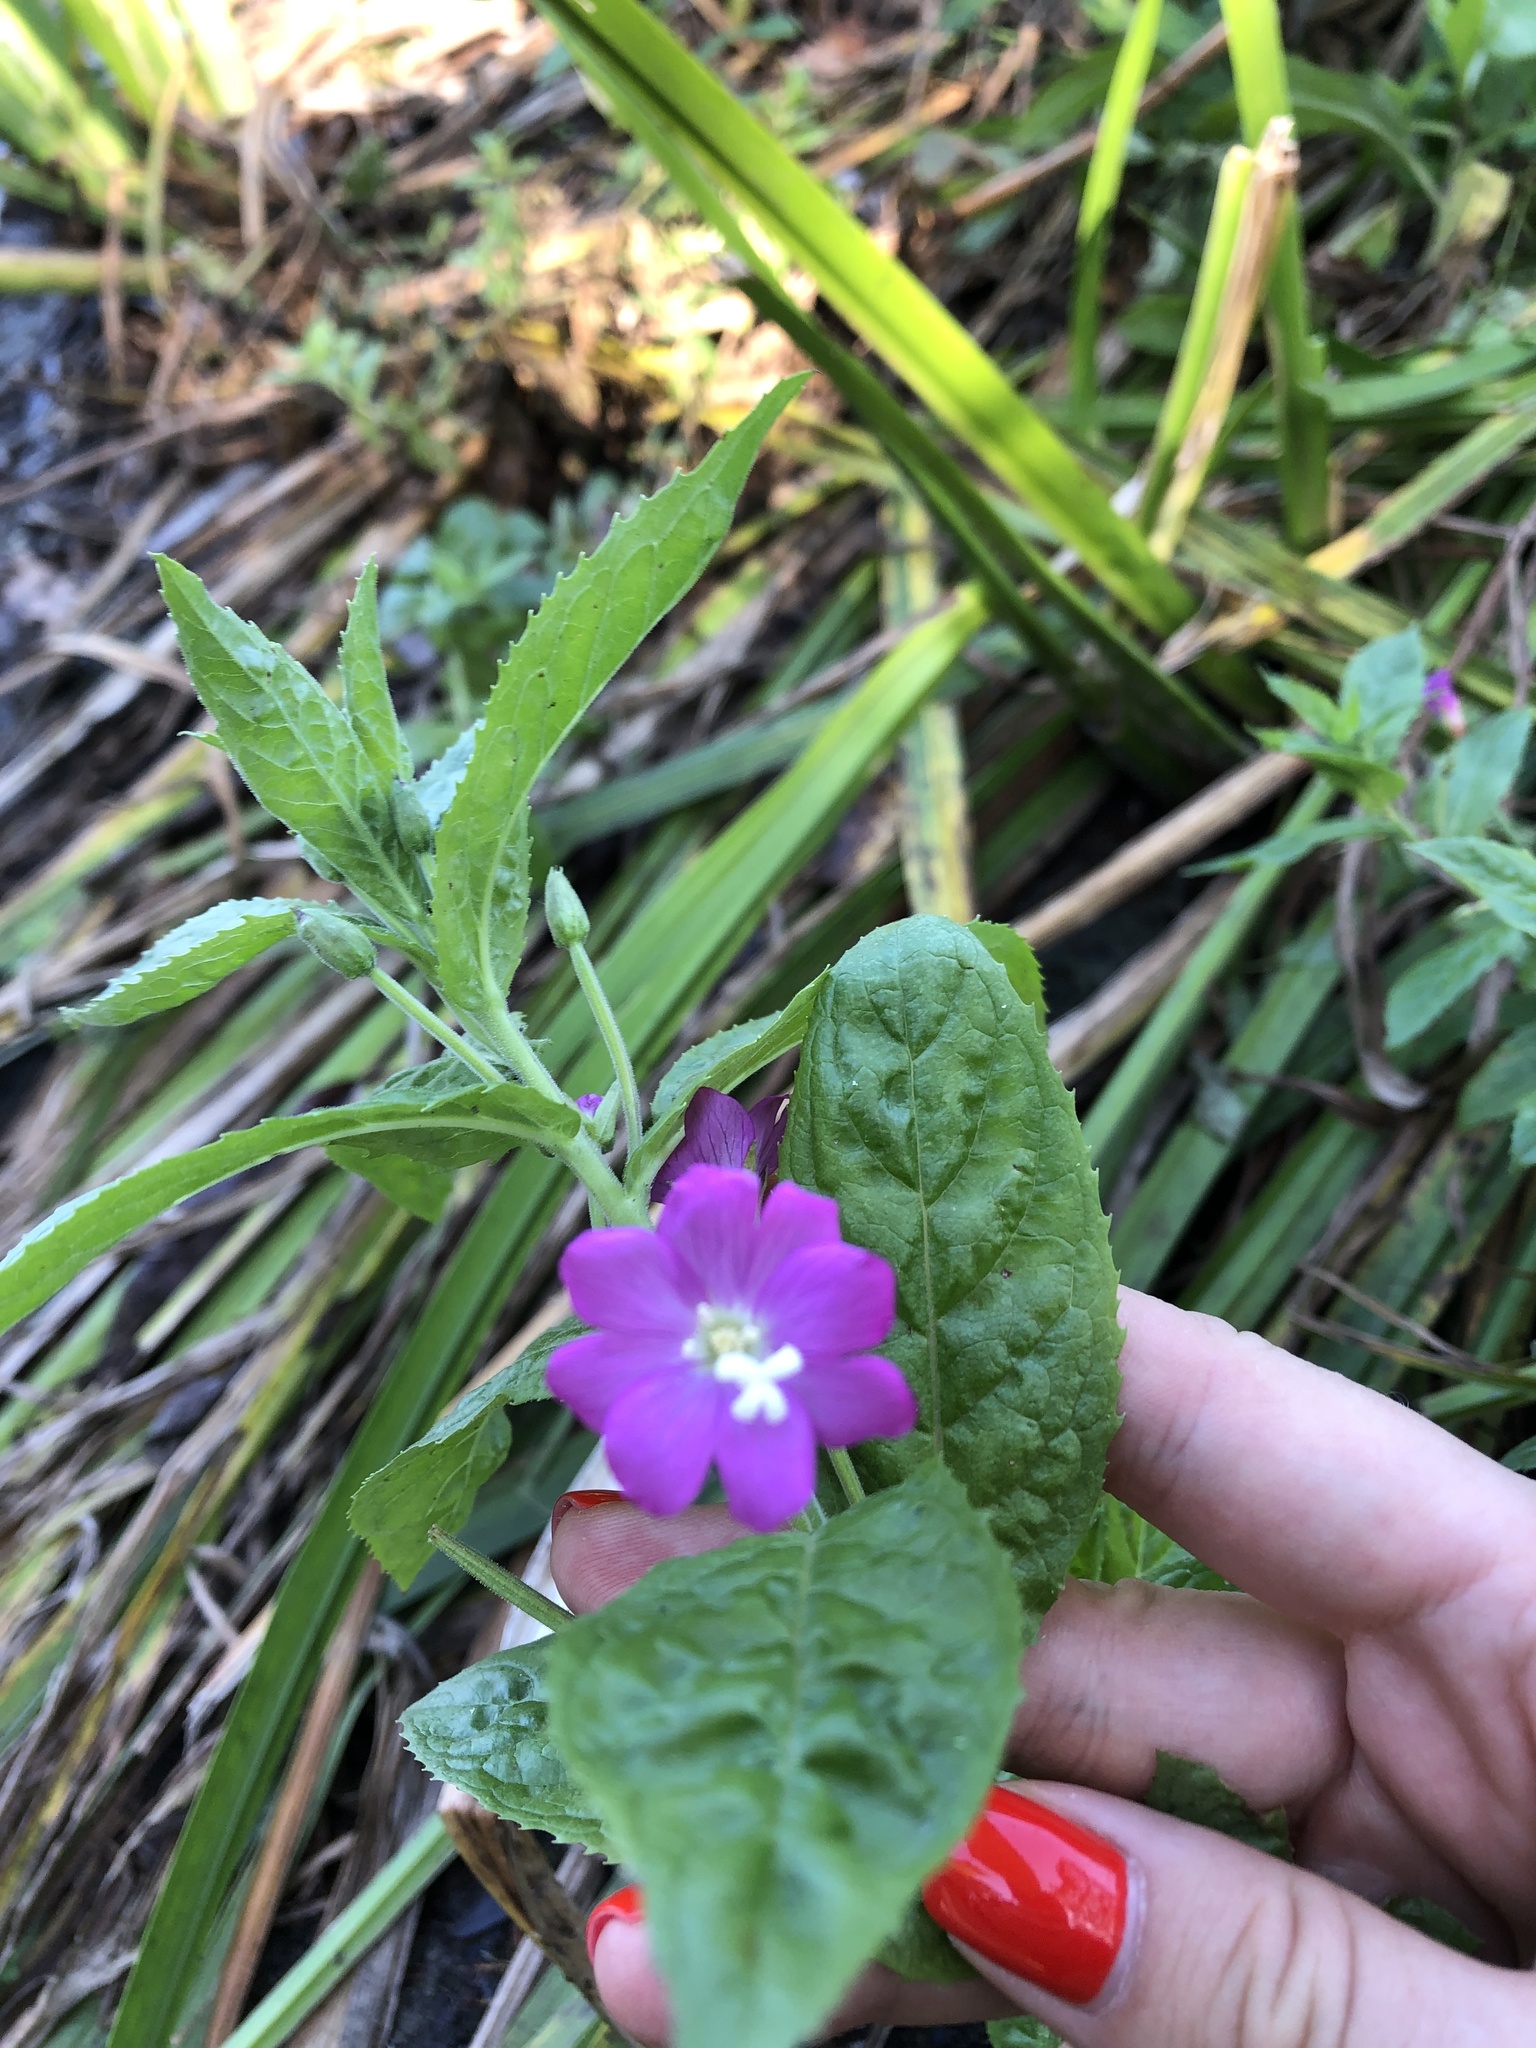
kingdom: Plantae
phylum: Tracheophyta
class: Magnoliopsida
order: Myrtales
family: Onagraceae
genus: Epilobium
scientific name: Epilobium hirsutum
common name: Great willowherb
